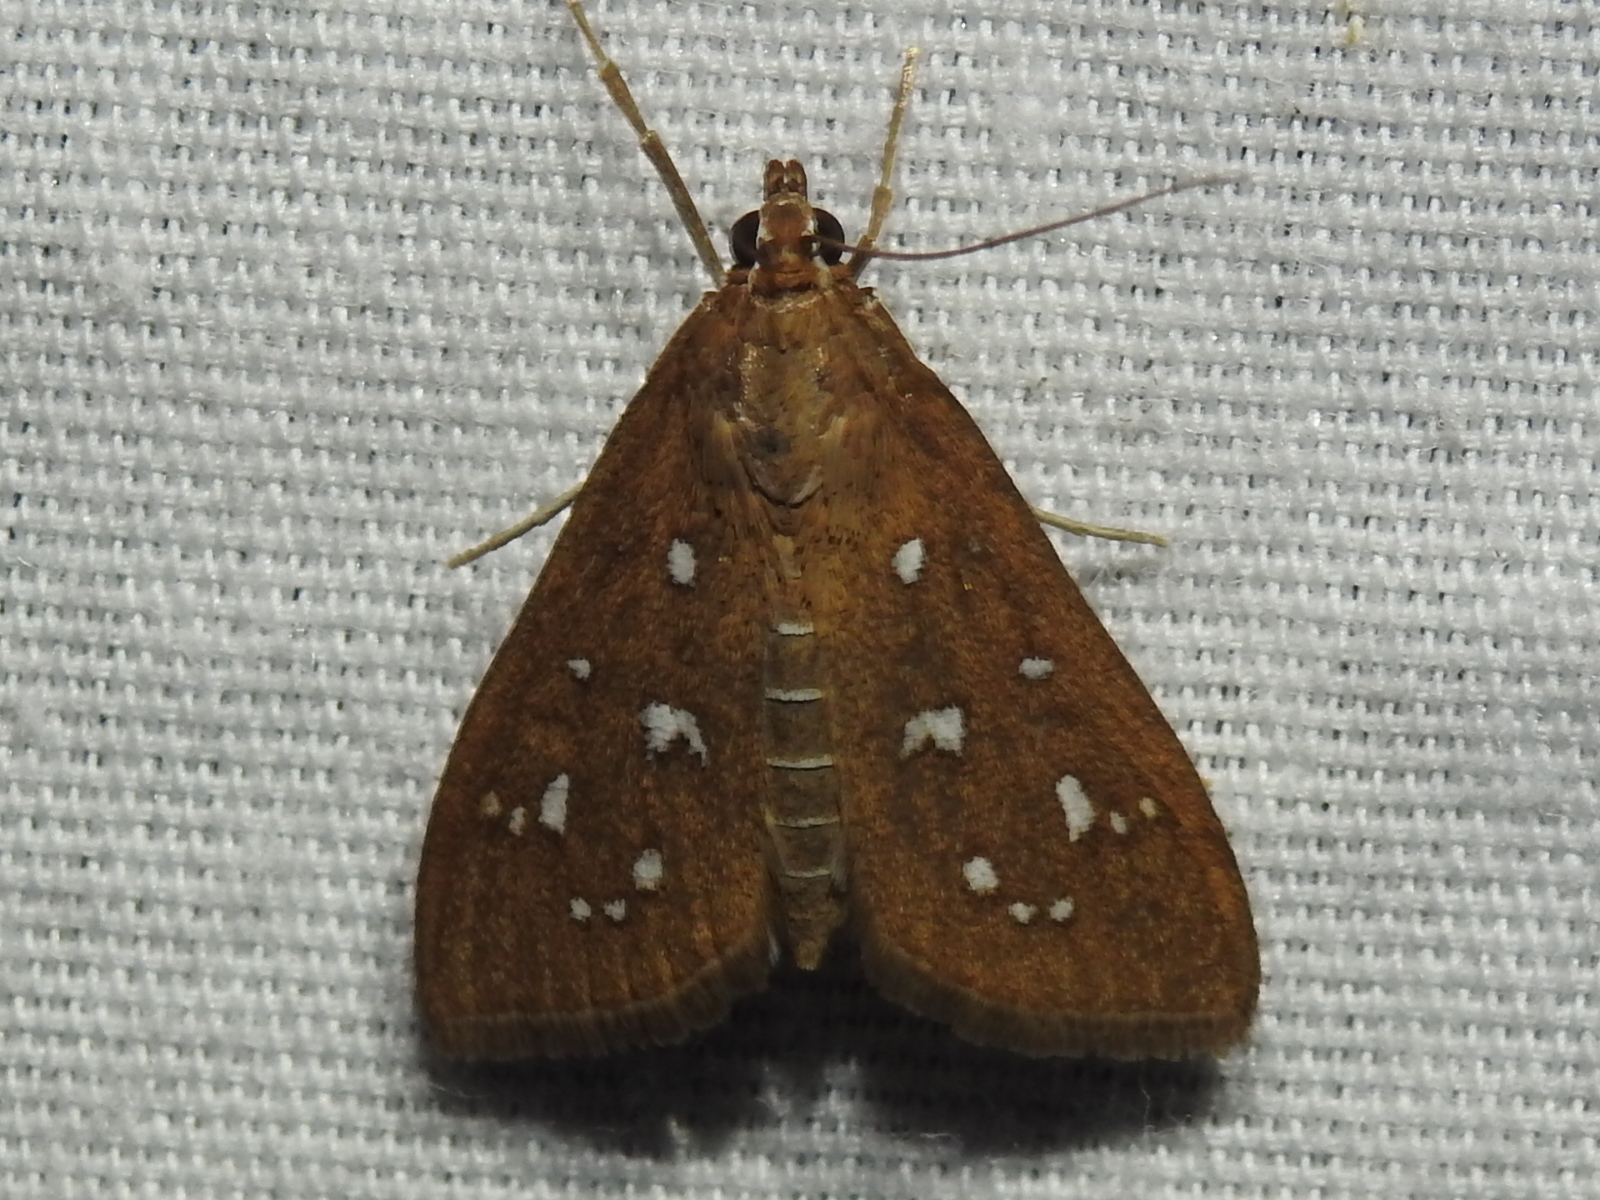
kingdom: Animalia
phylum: Arthropoda
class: Insecta
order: Lepidoptera
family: Crambidae
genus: Diastictis
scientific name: Diastictis ventralis
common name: White-spotted brown
